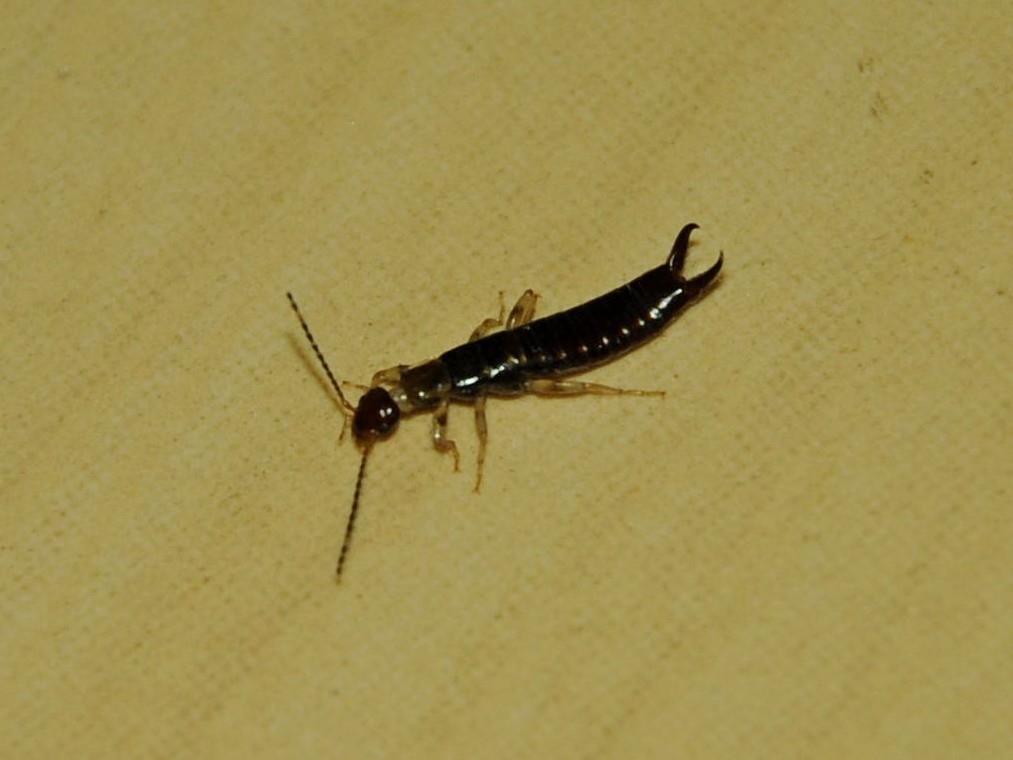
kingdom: Animalia
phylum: Arthropoda
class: Insecta
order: Dermaptera
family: Anisolabididae
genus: Euborellia
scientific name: Euborellia annulipes
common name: Ringlegged earwig
